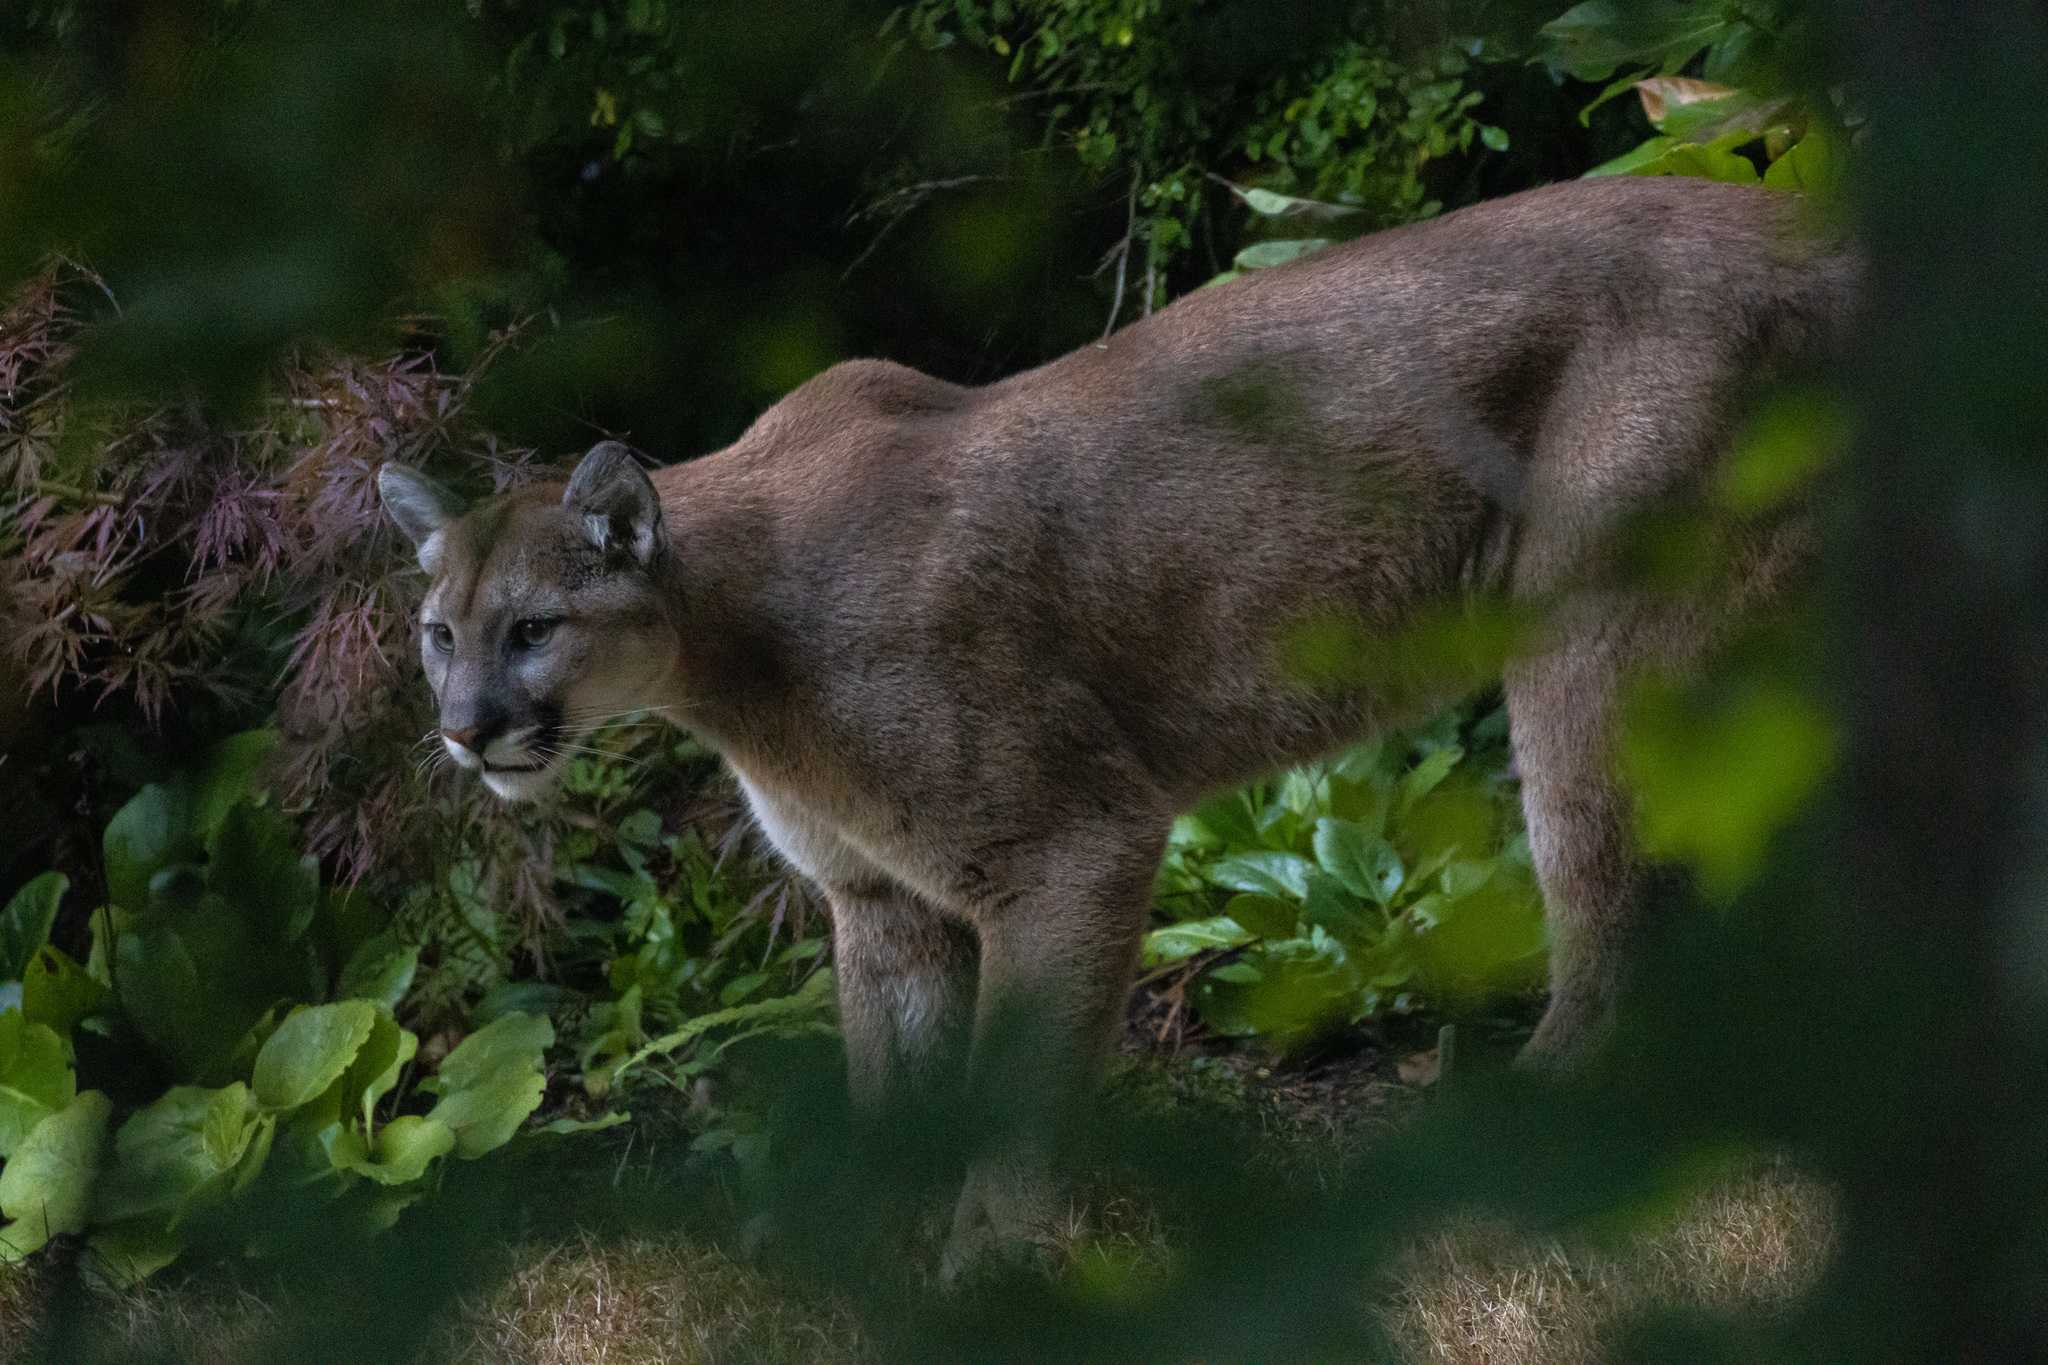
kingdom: Animalia
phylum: Chordata
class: Mammalia
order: Carnivora
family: Felidae
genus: Puma
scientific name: Puma concolor
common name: Puma
